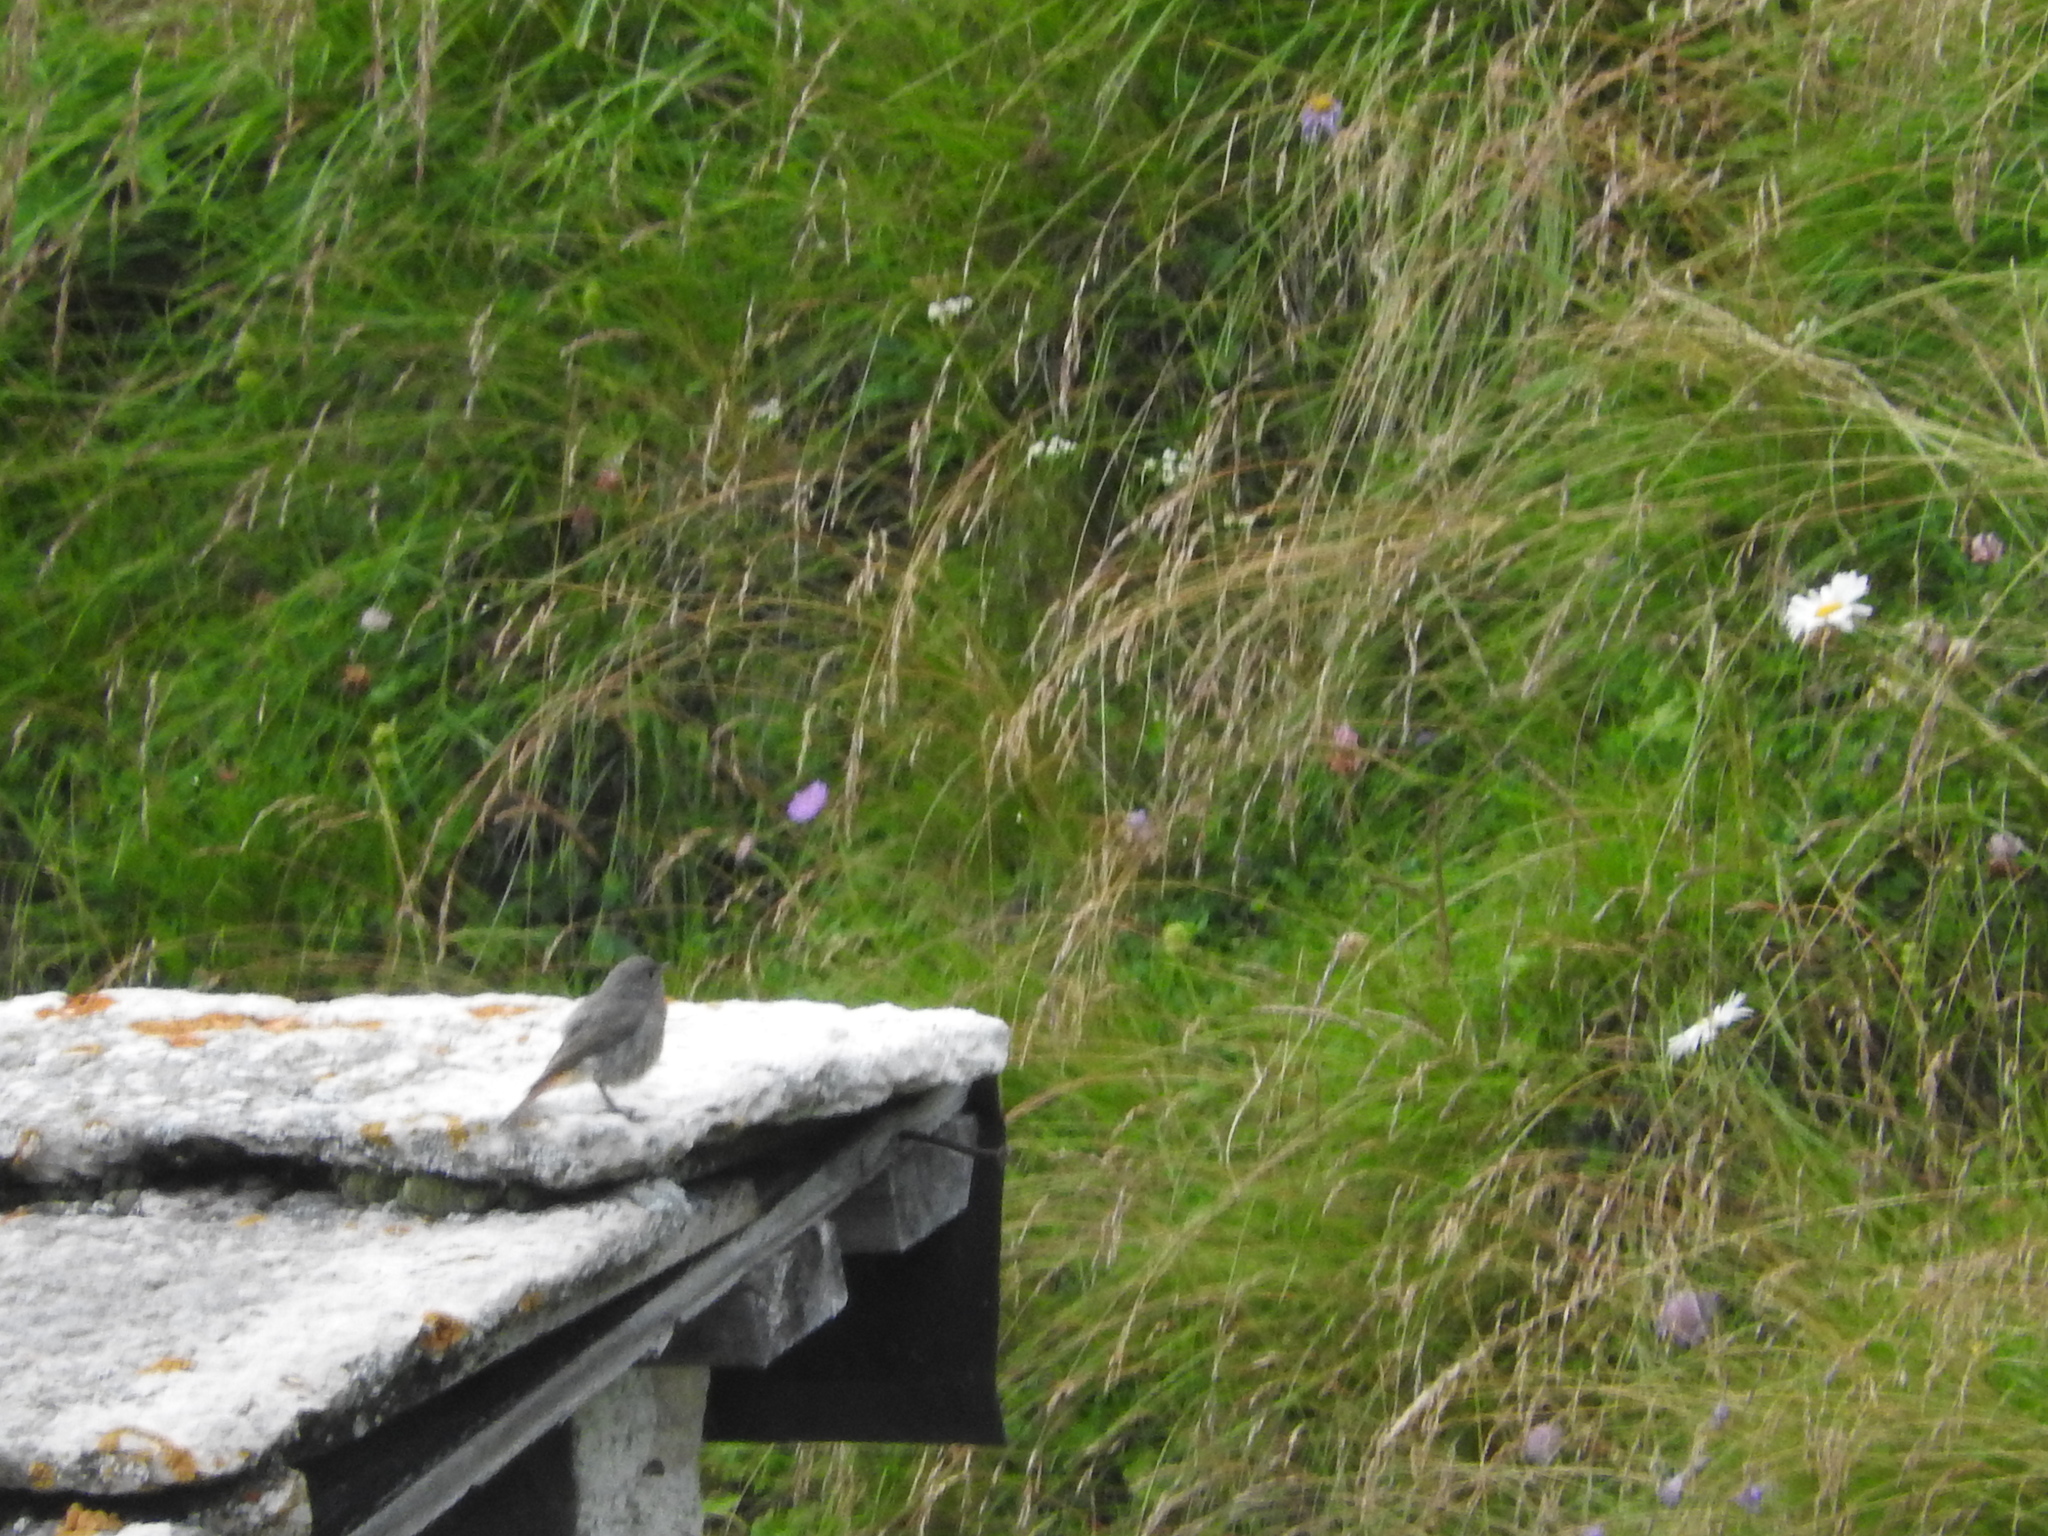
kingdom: Animalia
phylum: Chordata
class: Aves
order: Passeriformes
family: Muscicapidae
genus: Phoenicurus
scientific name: Phoenicurus ochruros
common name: Black redstart
